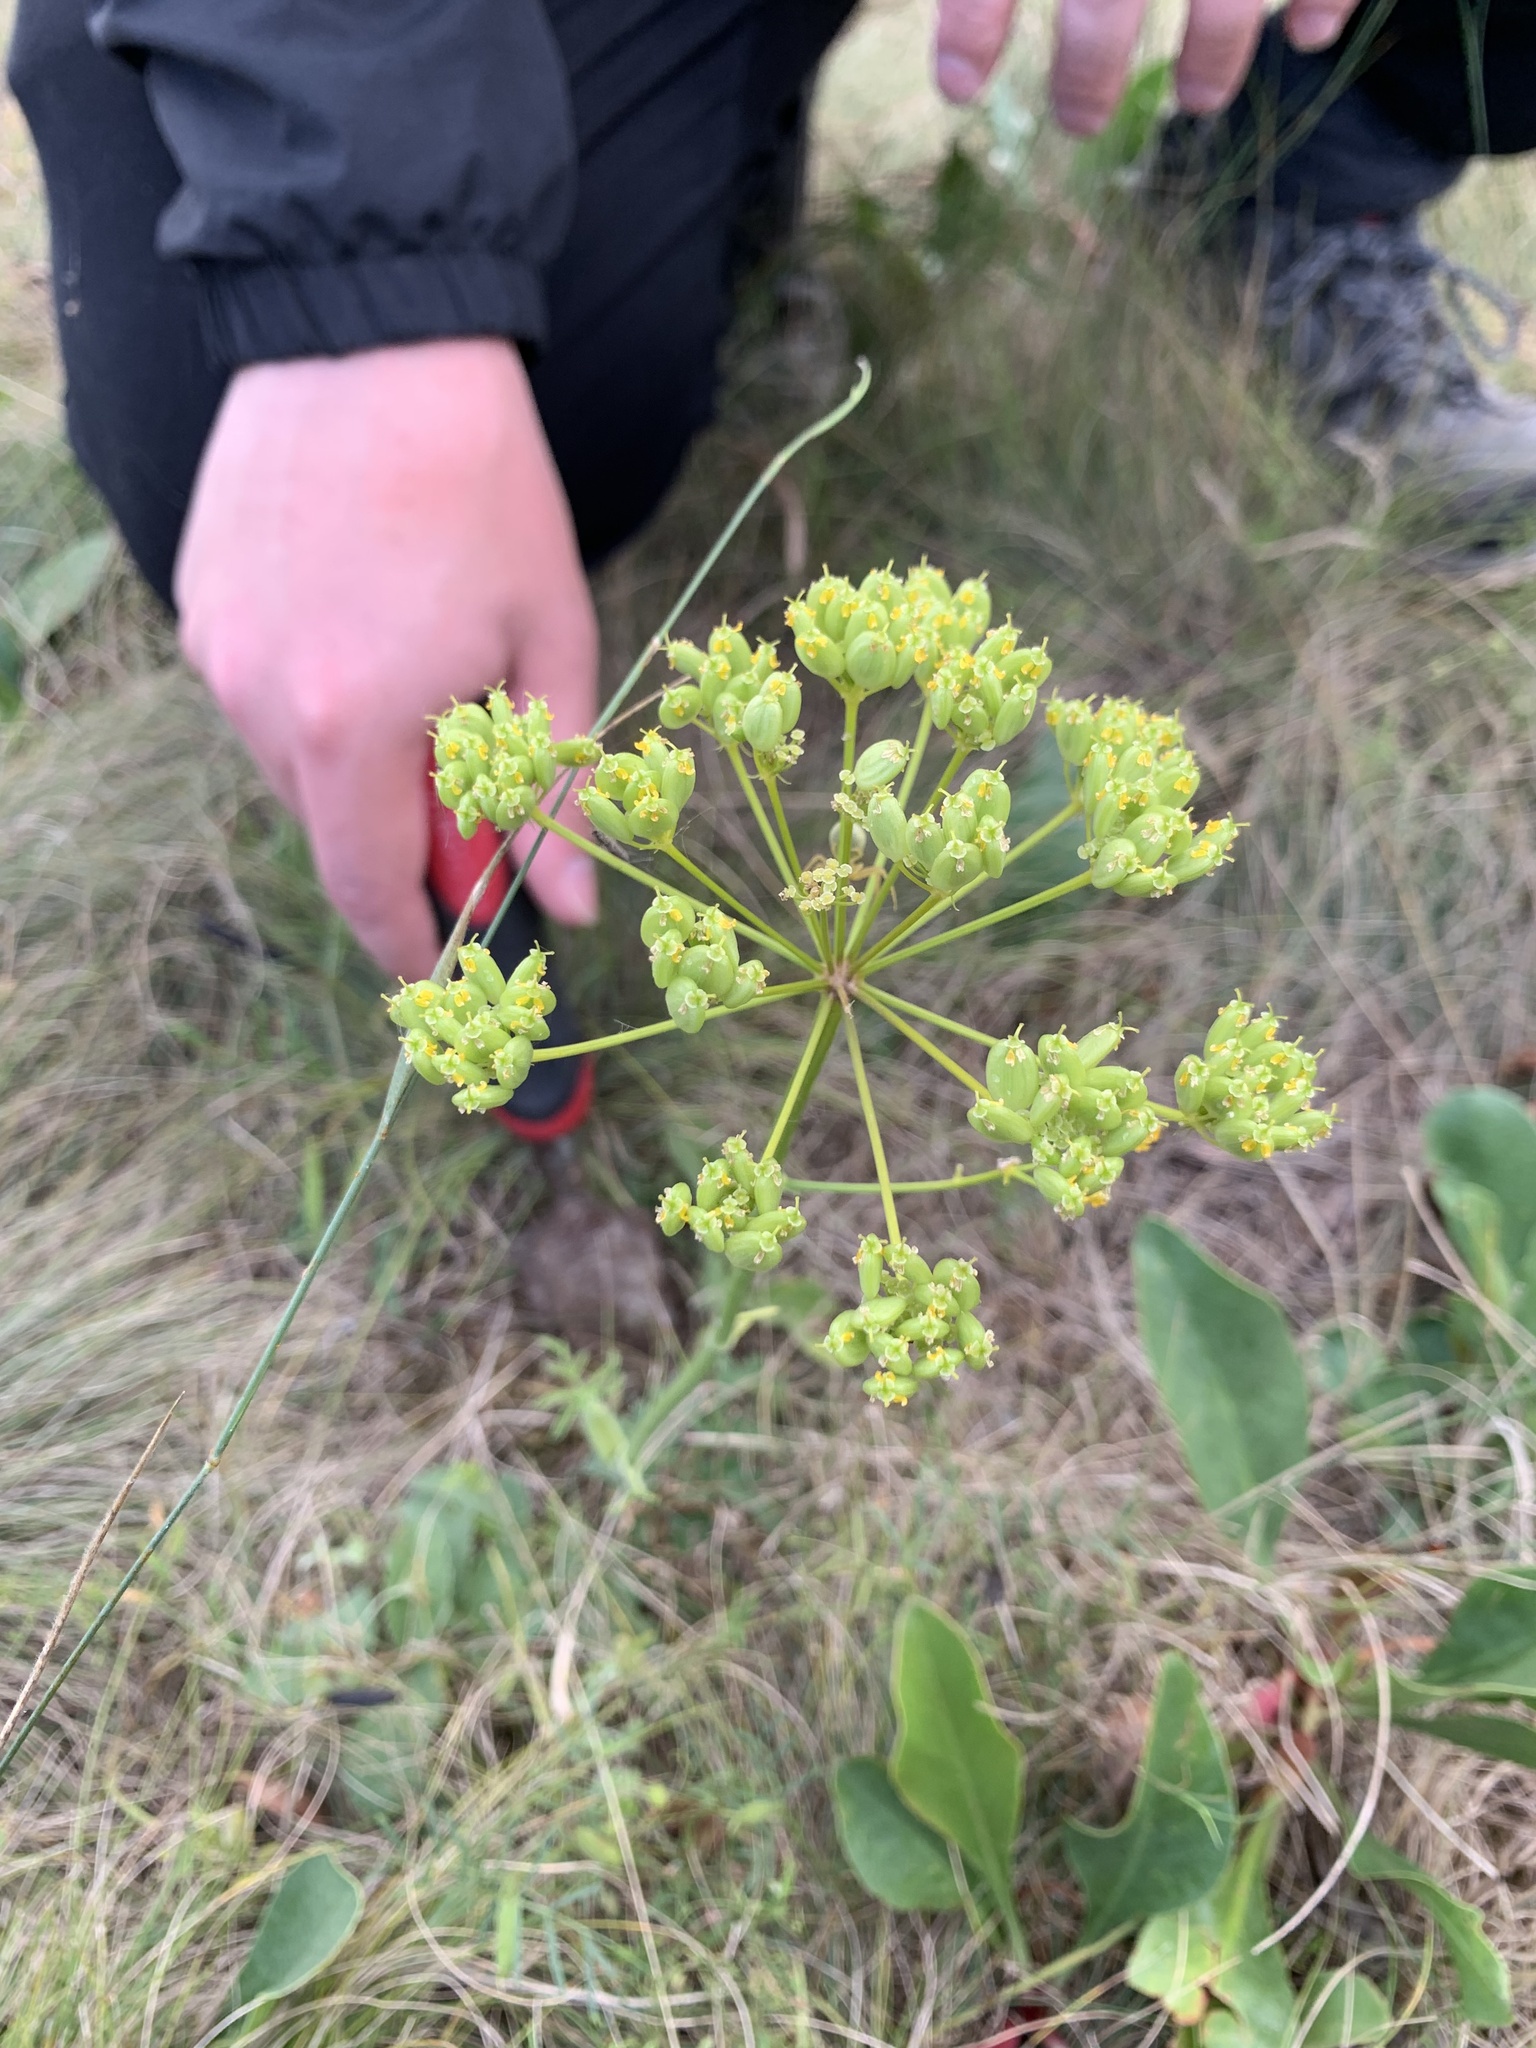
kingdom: Plantae
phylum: Tracheophyta
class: Magnoliopsida
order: Apiales
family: Apiaceae
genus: Pastinaca
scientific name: Pastinaca clausii
